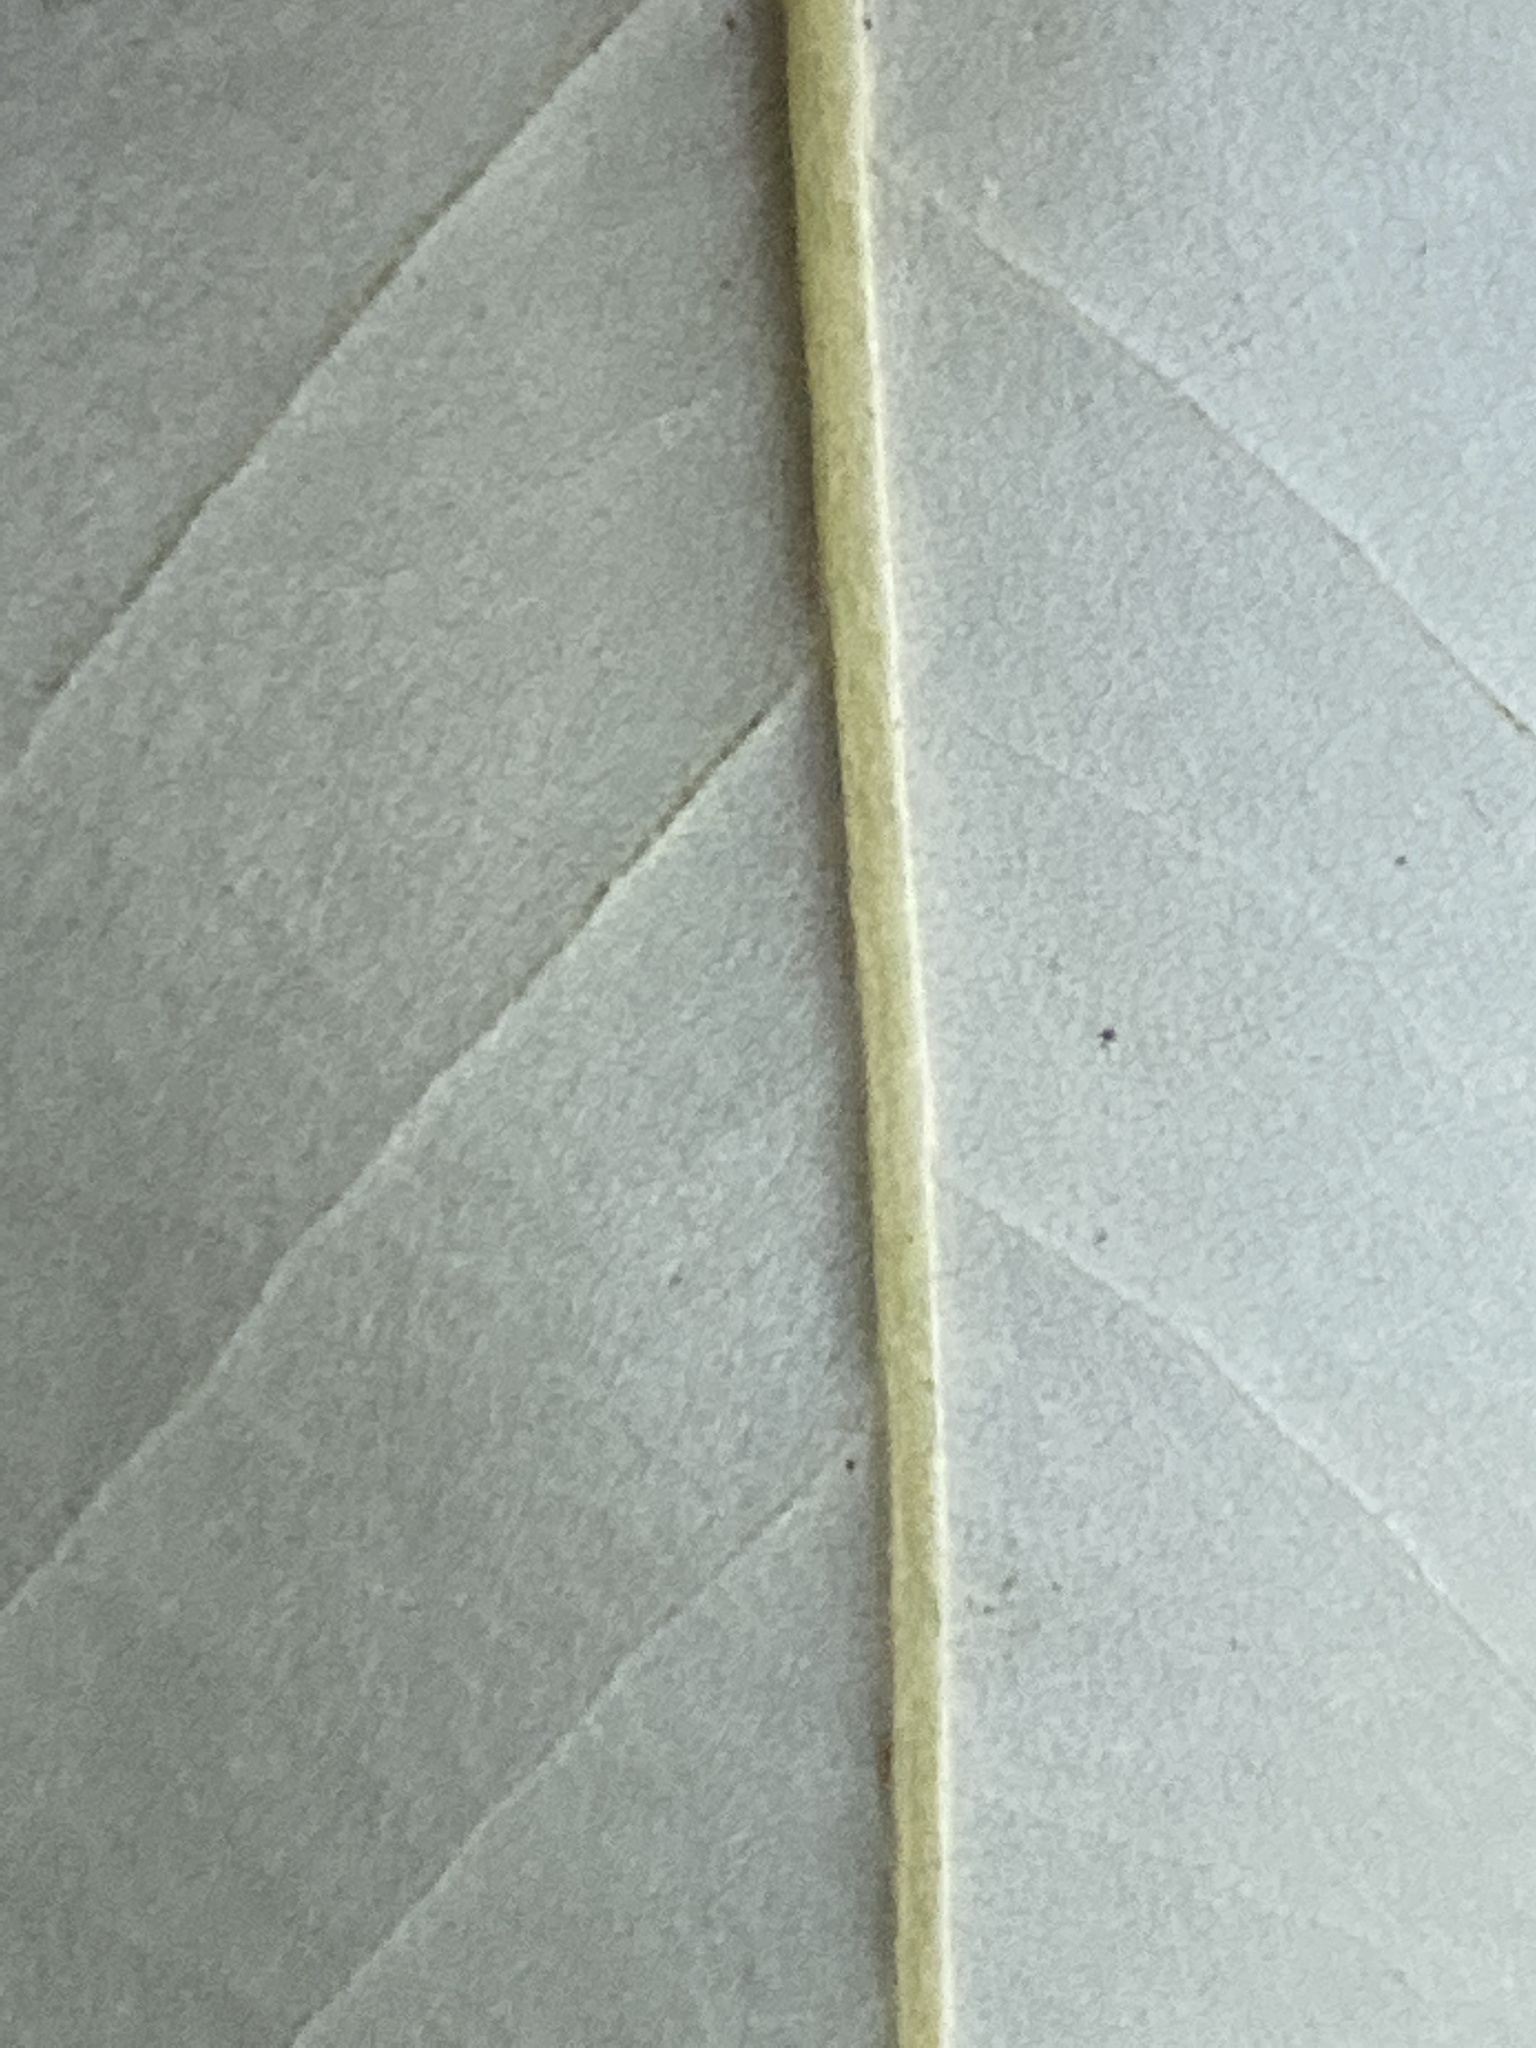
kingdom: Plantae
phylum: Tracheophyta
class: Magnoliopsida
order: Magnoliales
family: Magnoliaceae
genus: Magnolia
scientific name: Magnolia virginiana
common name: Swamp bay
